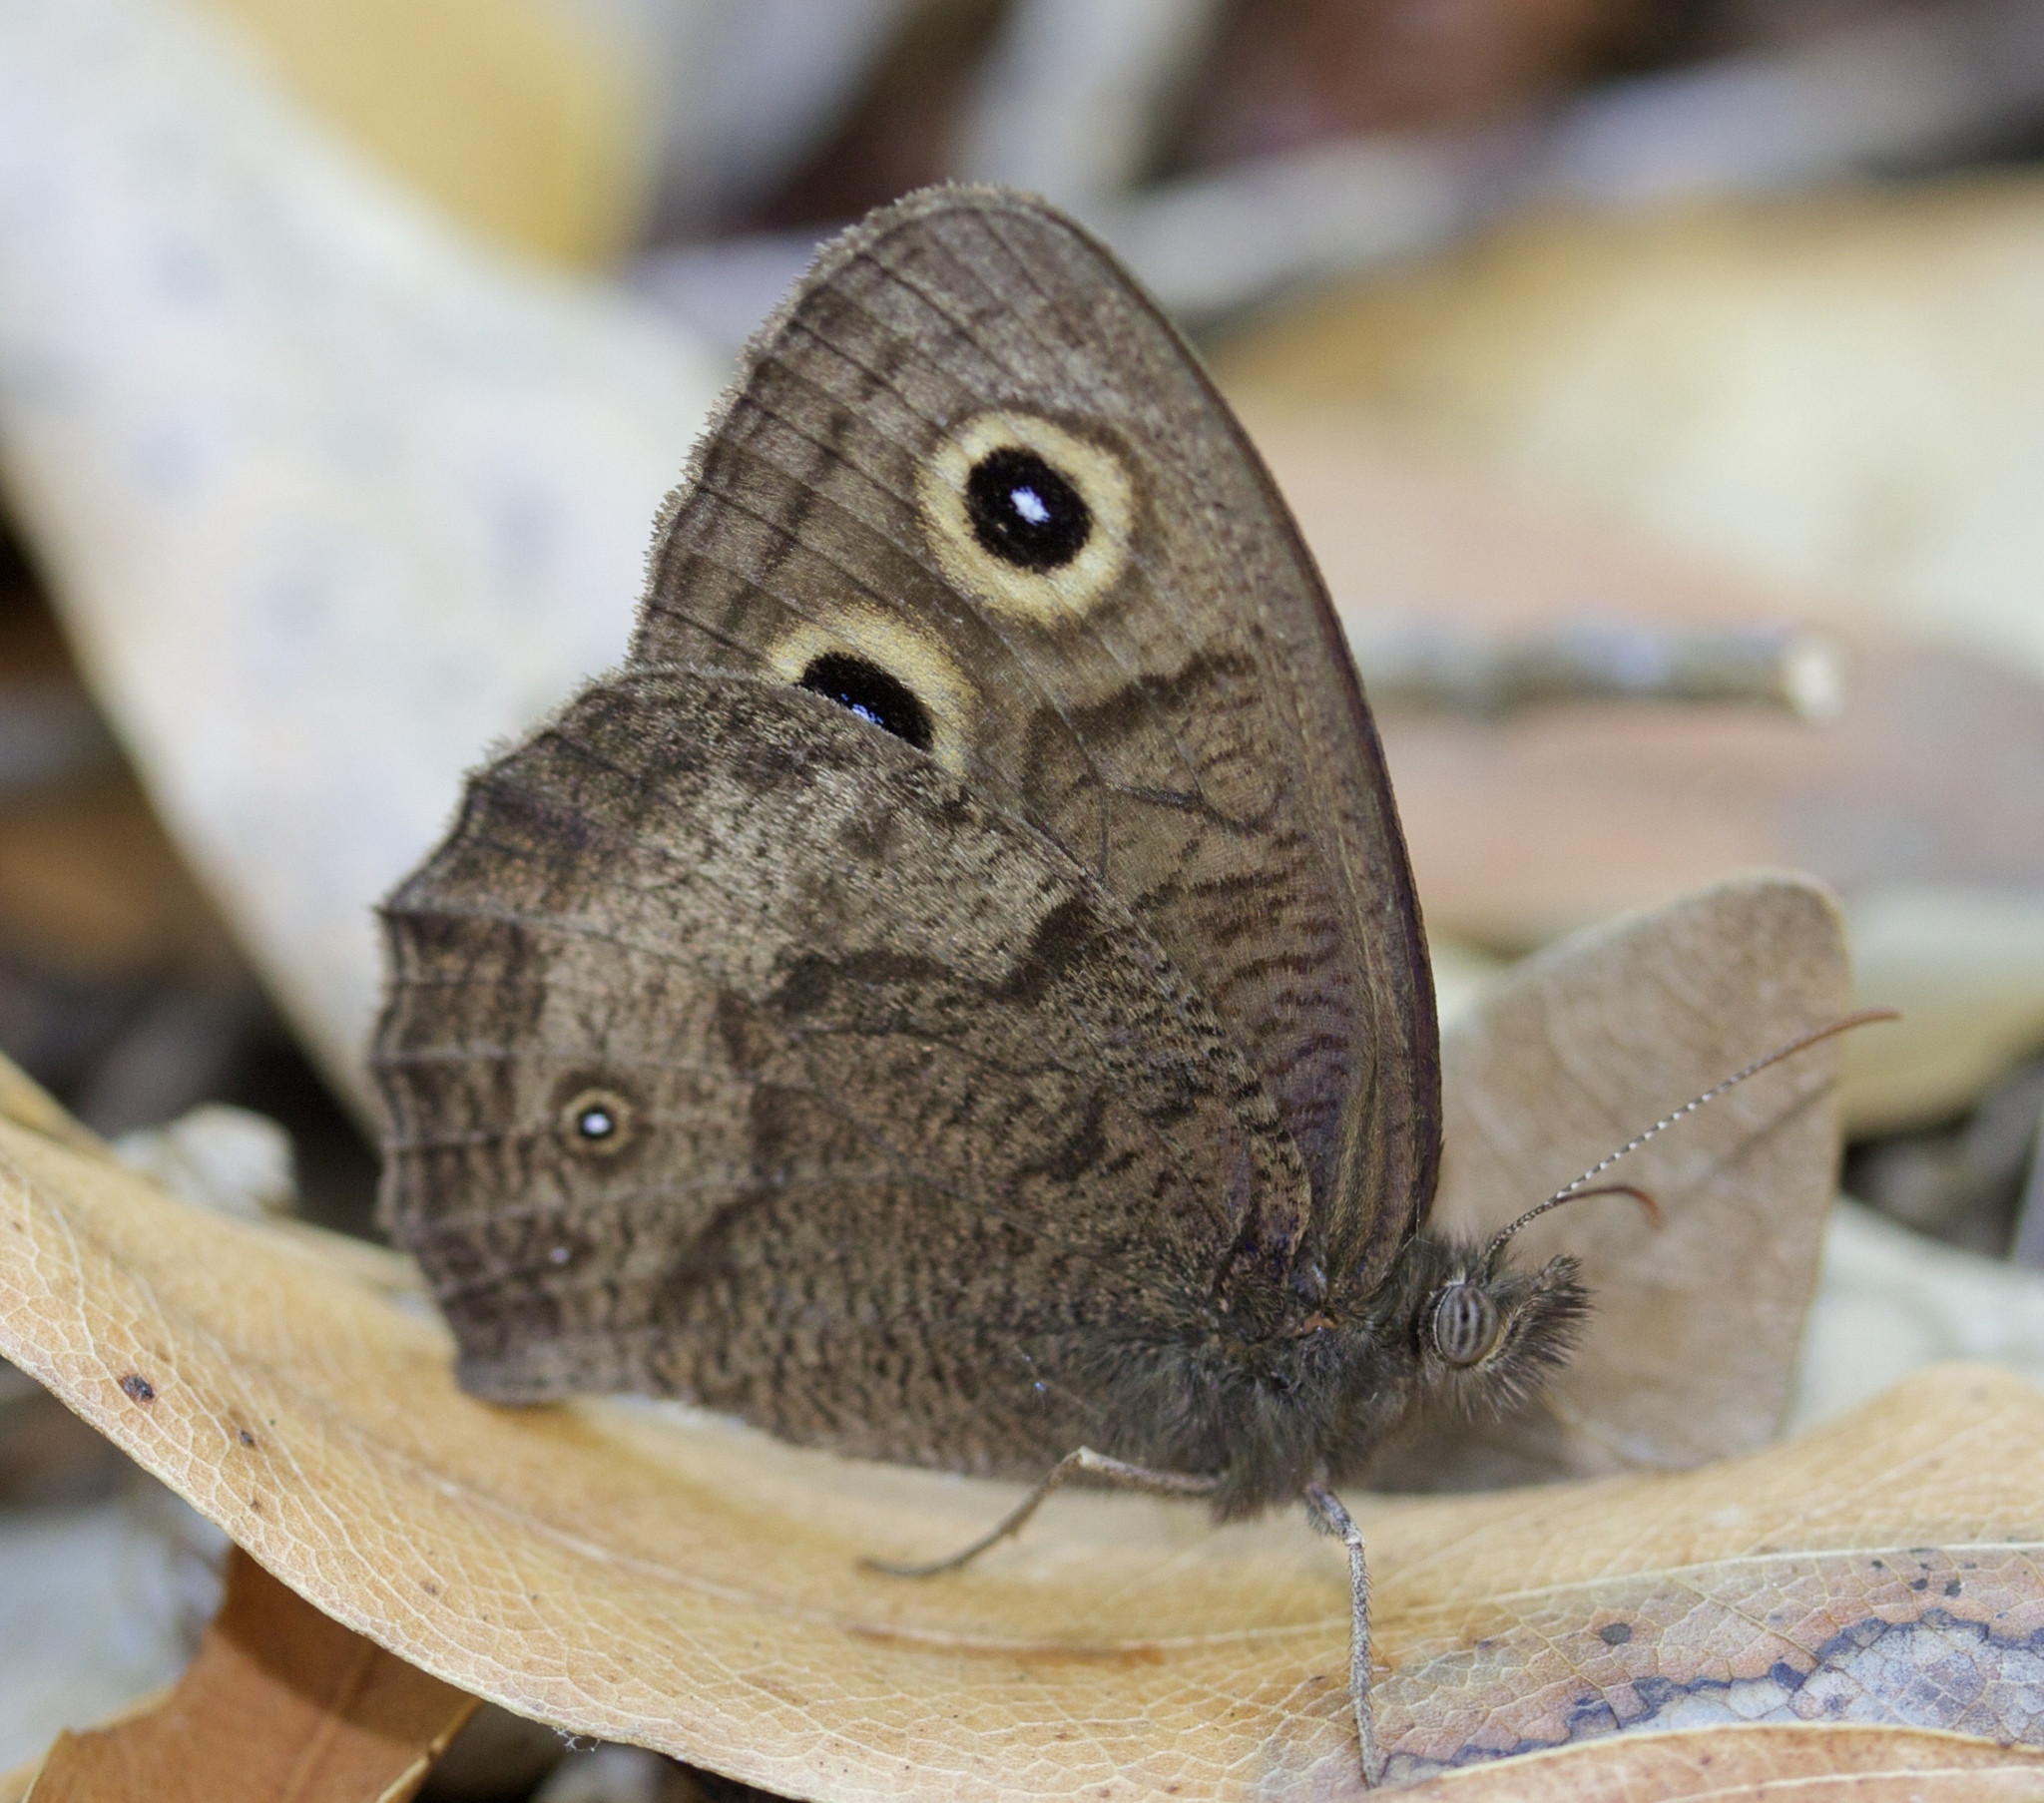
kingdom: Animalia
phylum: Arthropoda
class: Insecta
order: Lepidoptera
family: Nymphalidae
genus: Cercyonis
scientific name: Cercyonis pegala
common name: Common wood-nymph
